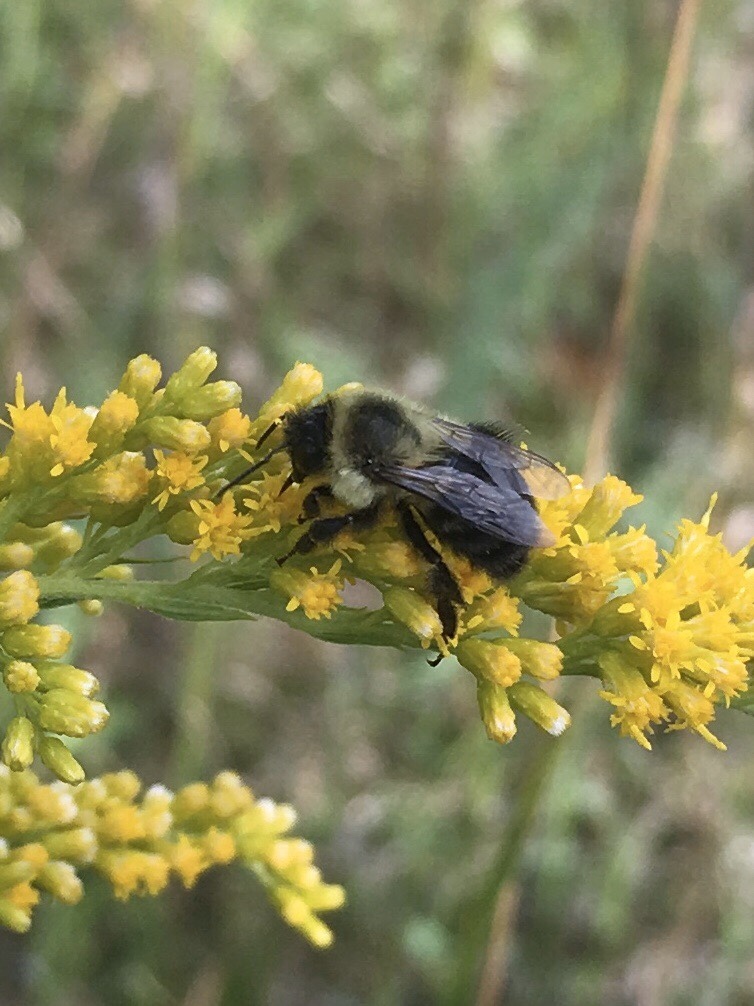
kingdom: Animalia
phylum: Arthropoda
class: Insecta
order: Hymenoptera
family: Apidae
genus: Bombus
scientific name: Bombus impatiens
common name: Common eastern bumble bee
